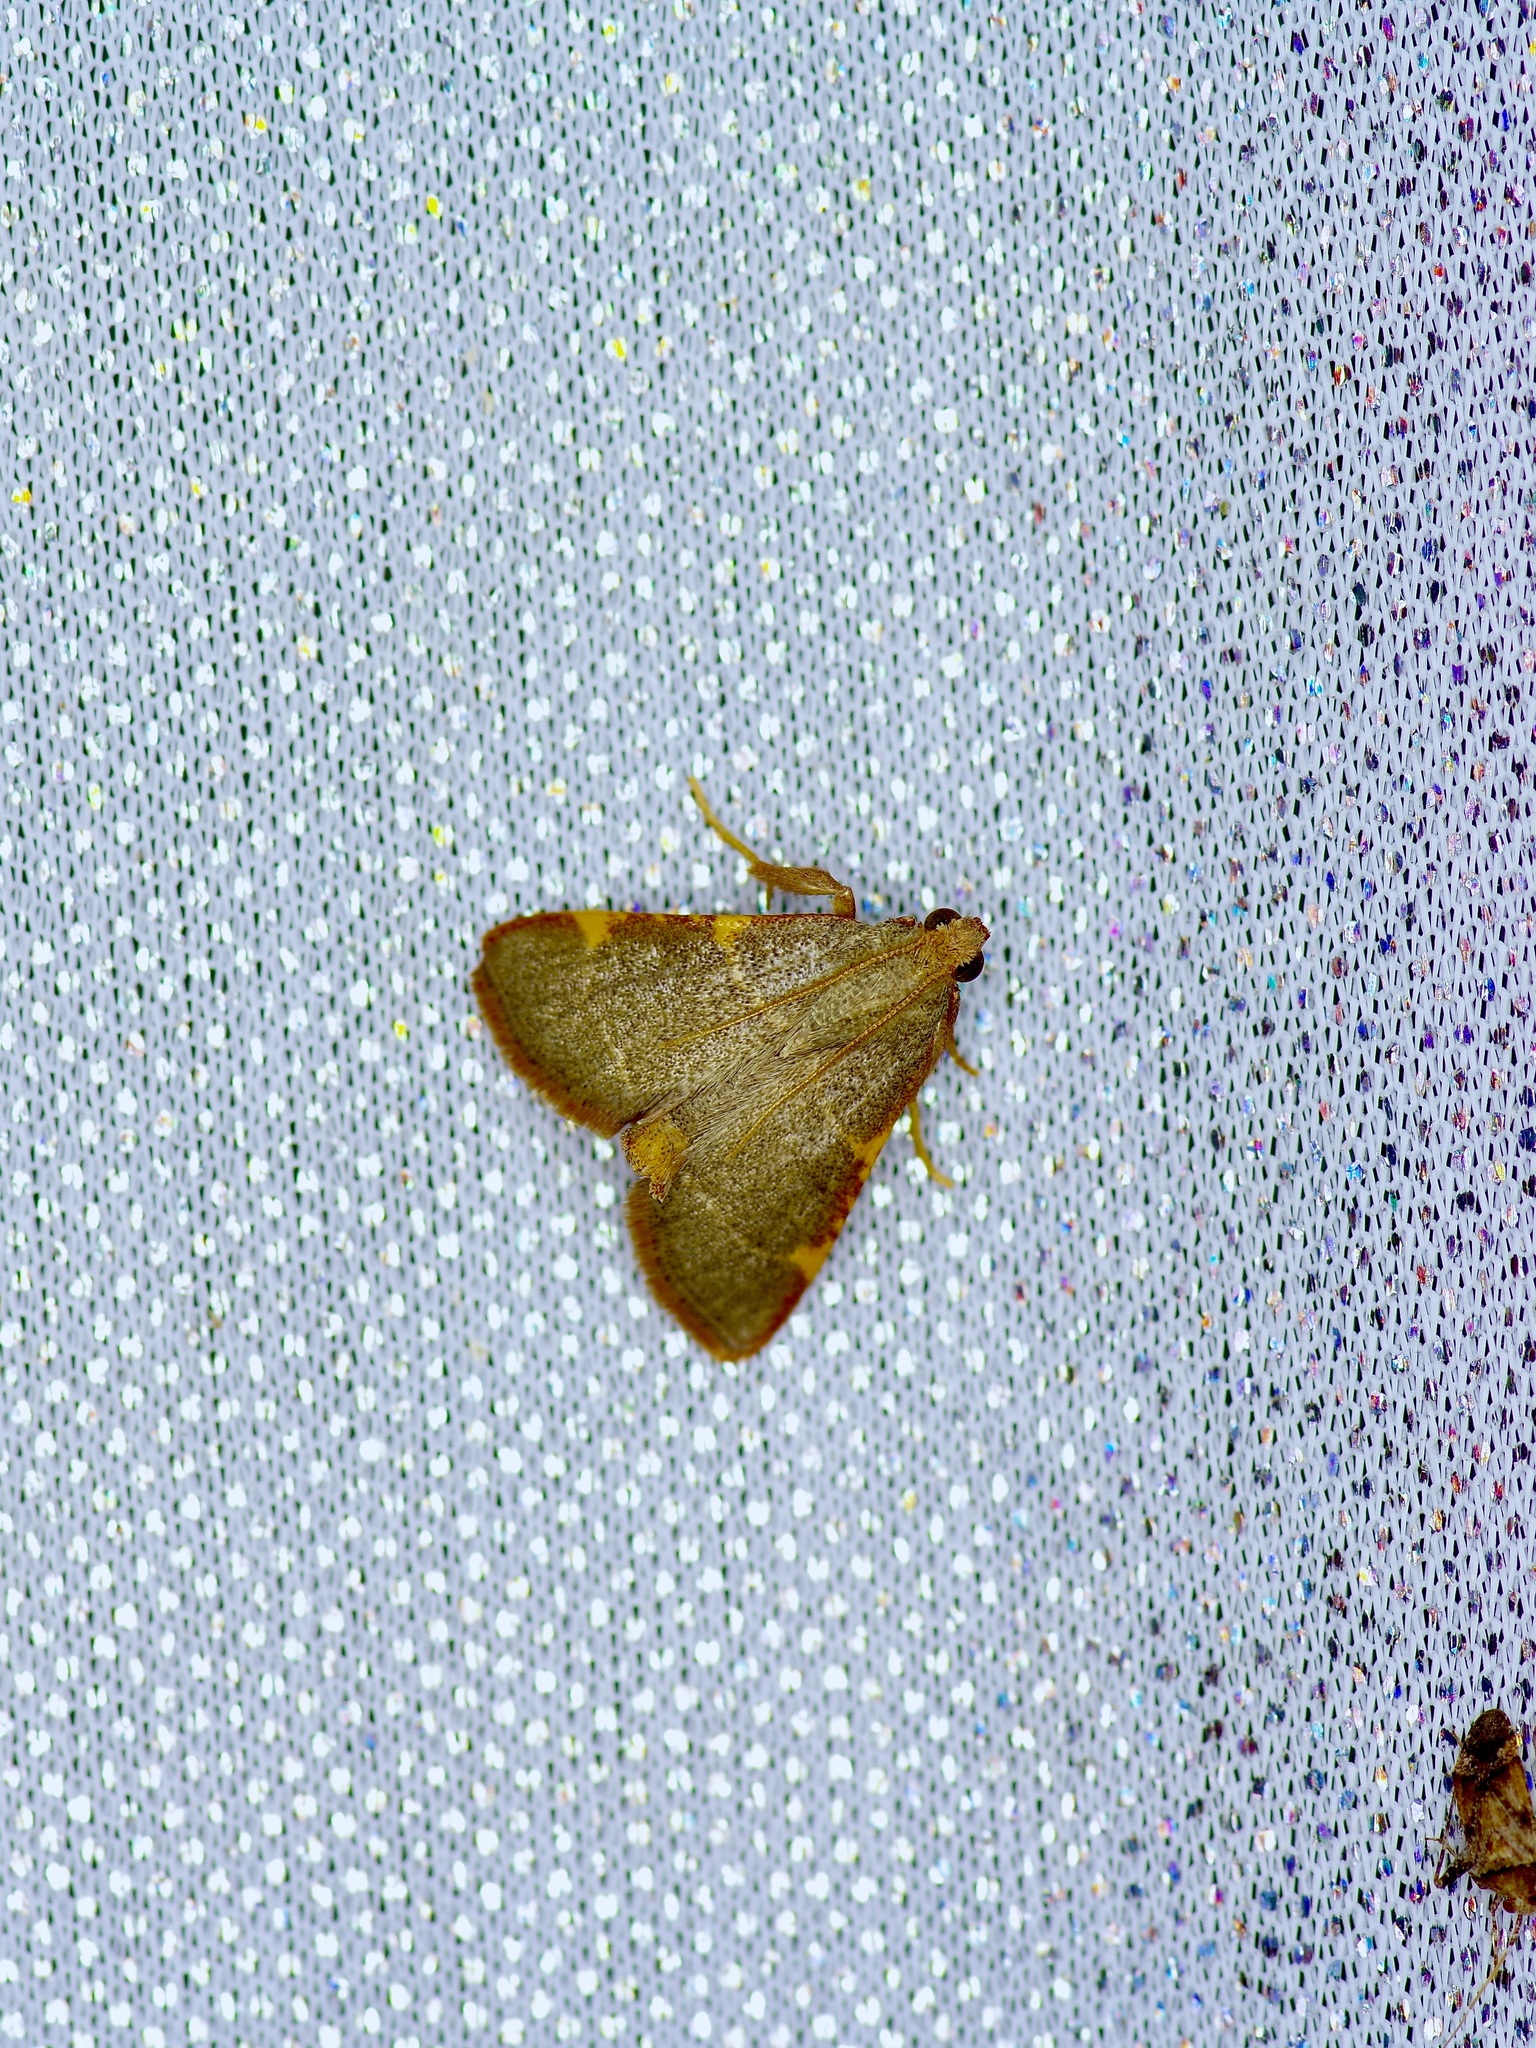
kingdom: Animalia
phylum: Arthropoda
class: Insecta
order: Lepidoptera
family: Pyralidae
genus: Hypsopygia
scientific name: Hypsopygia binodulalis
